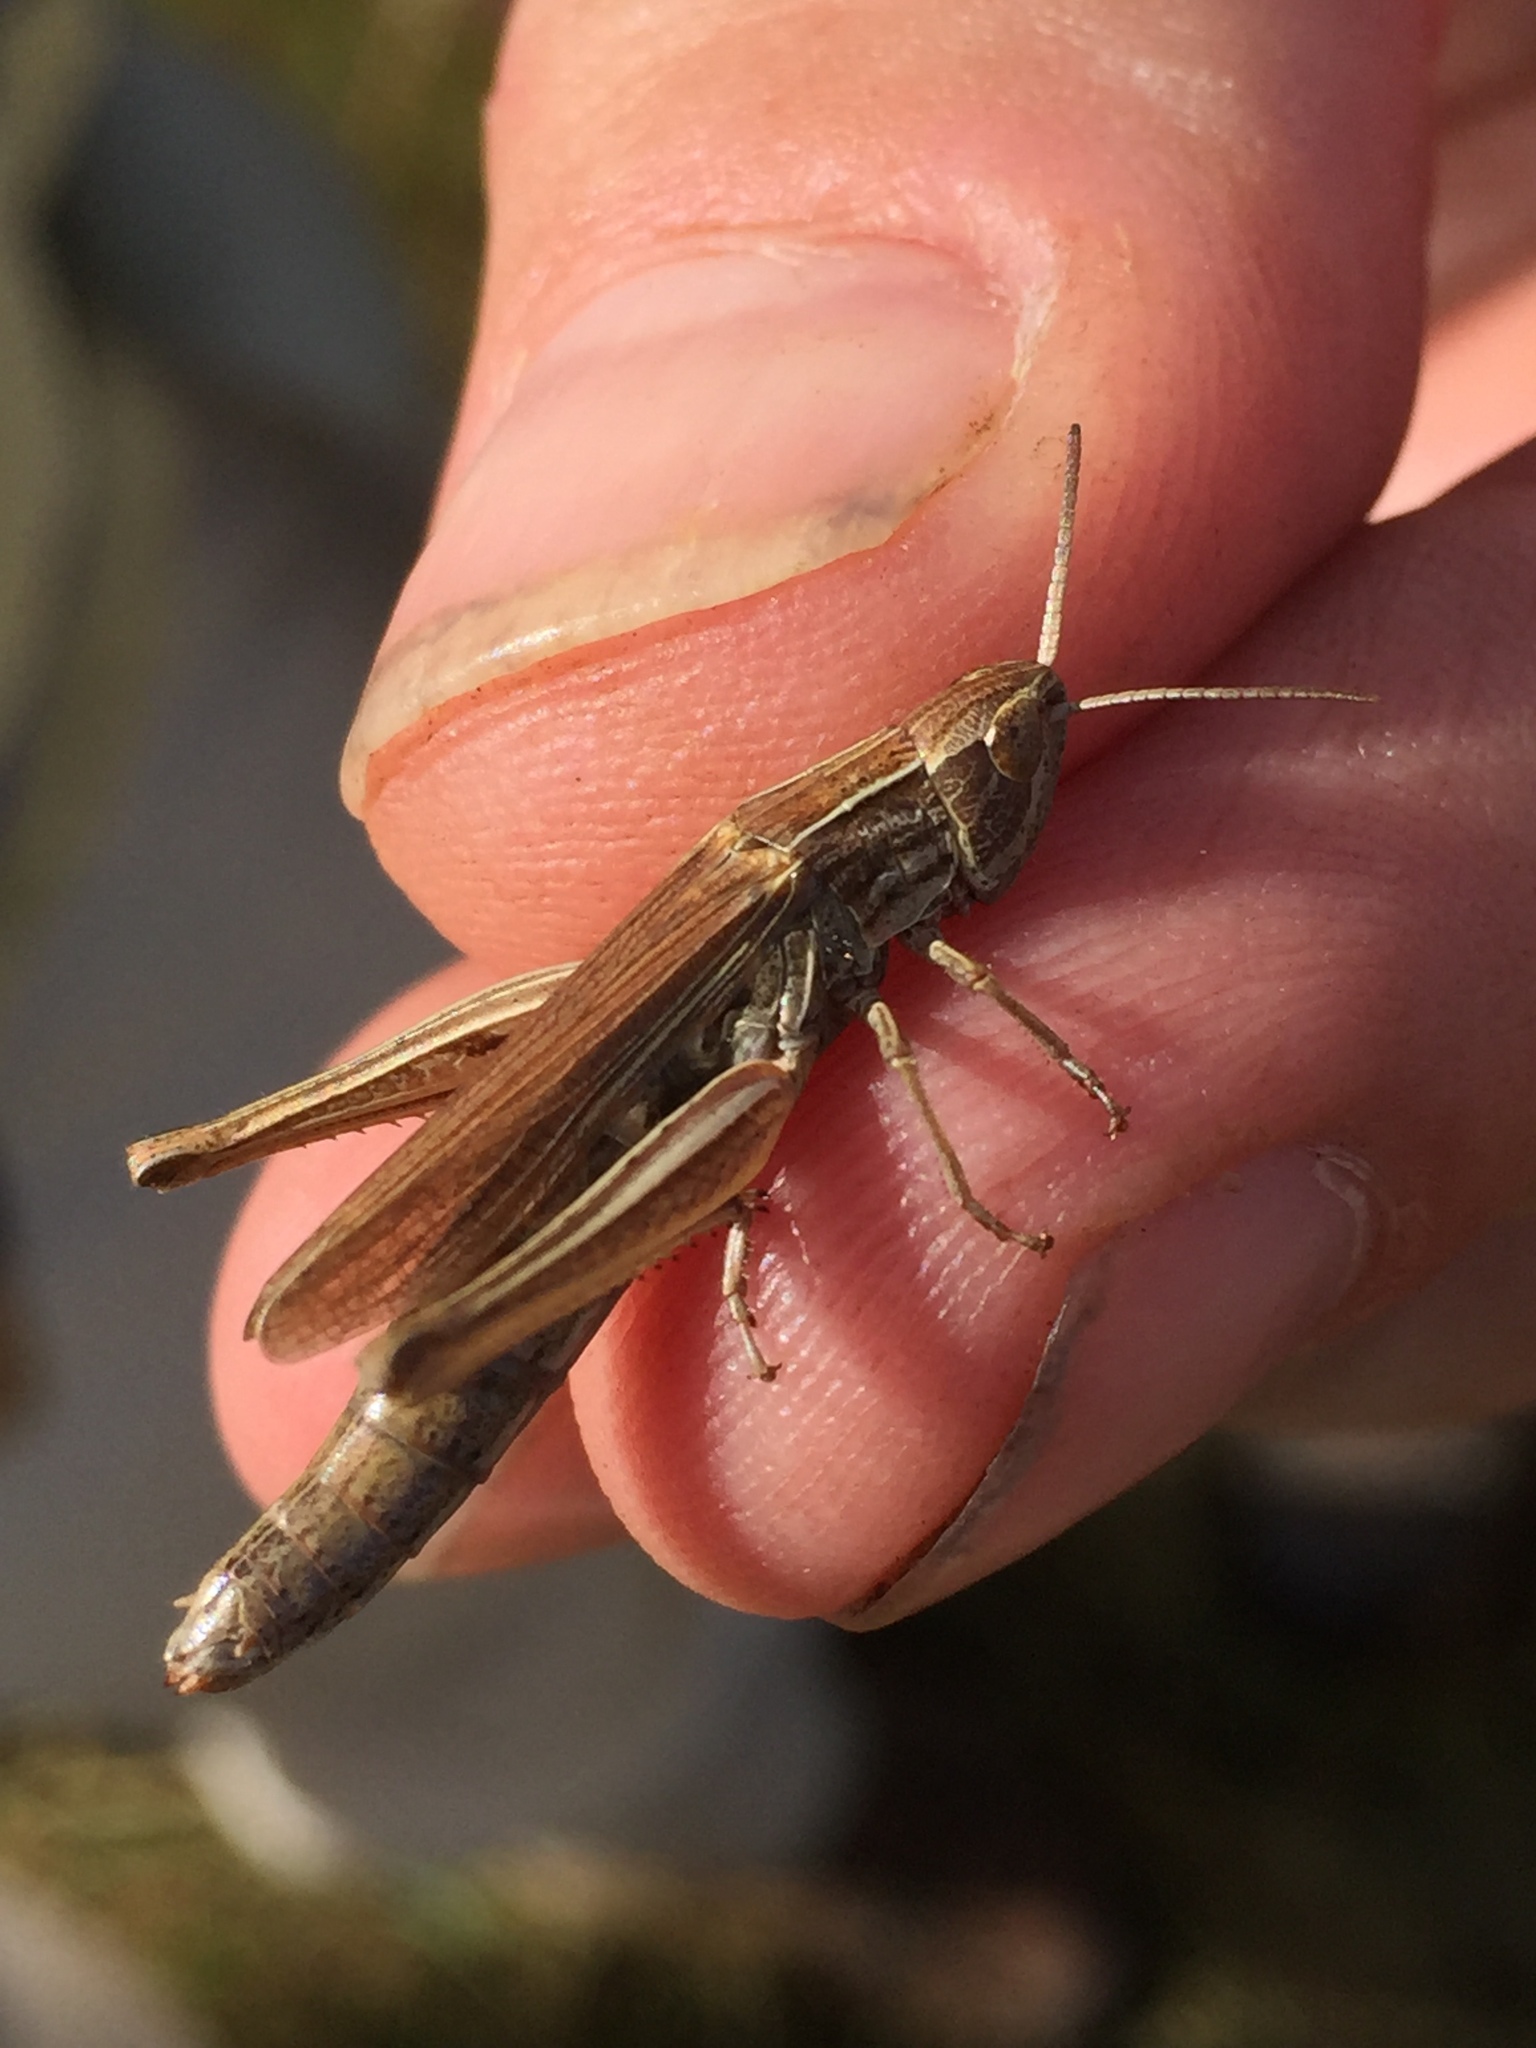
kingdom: Animalia
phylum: Arthropoda
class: Insecta
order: Orthoptera
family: Acrididae
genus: Chorthippus
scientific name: Chorthippus albomarginatus
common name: Lesser marsh grasshopper
